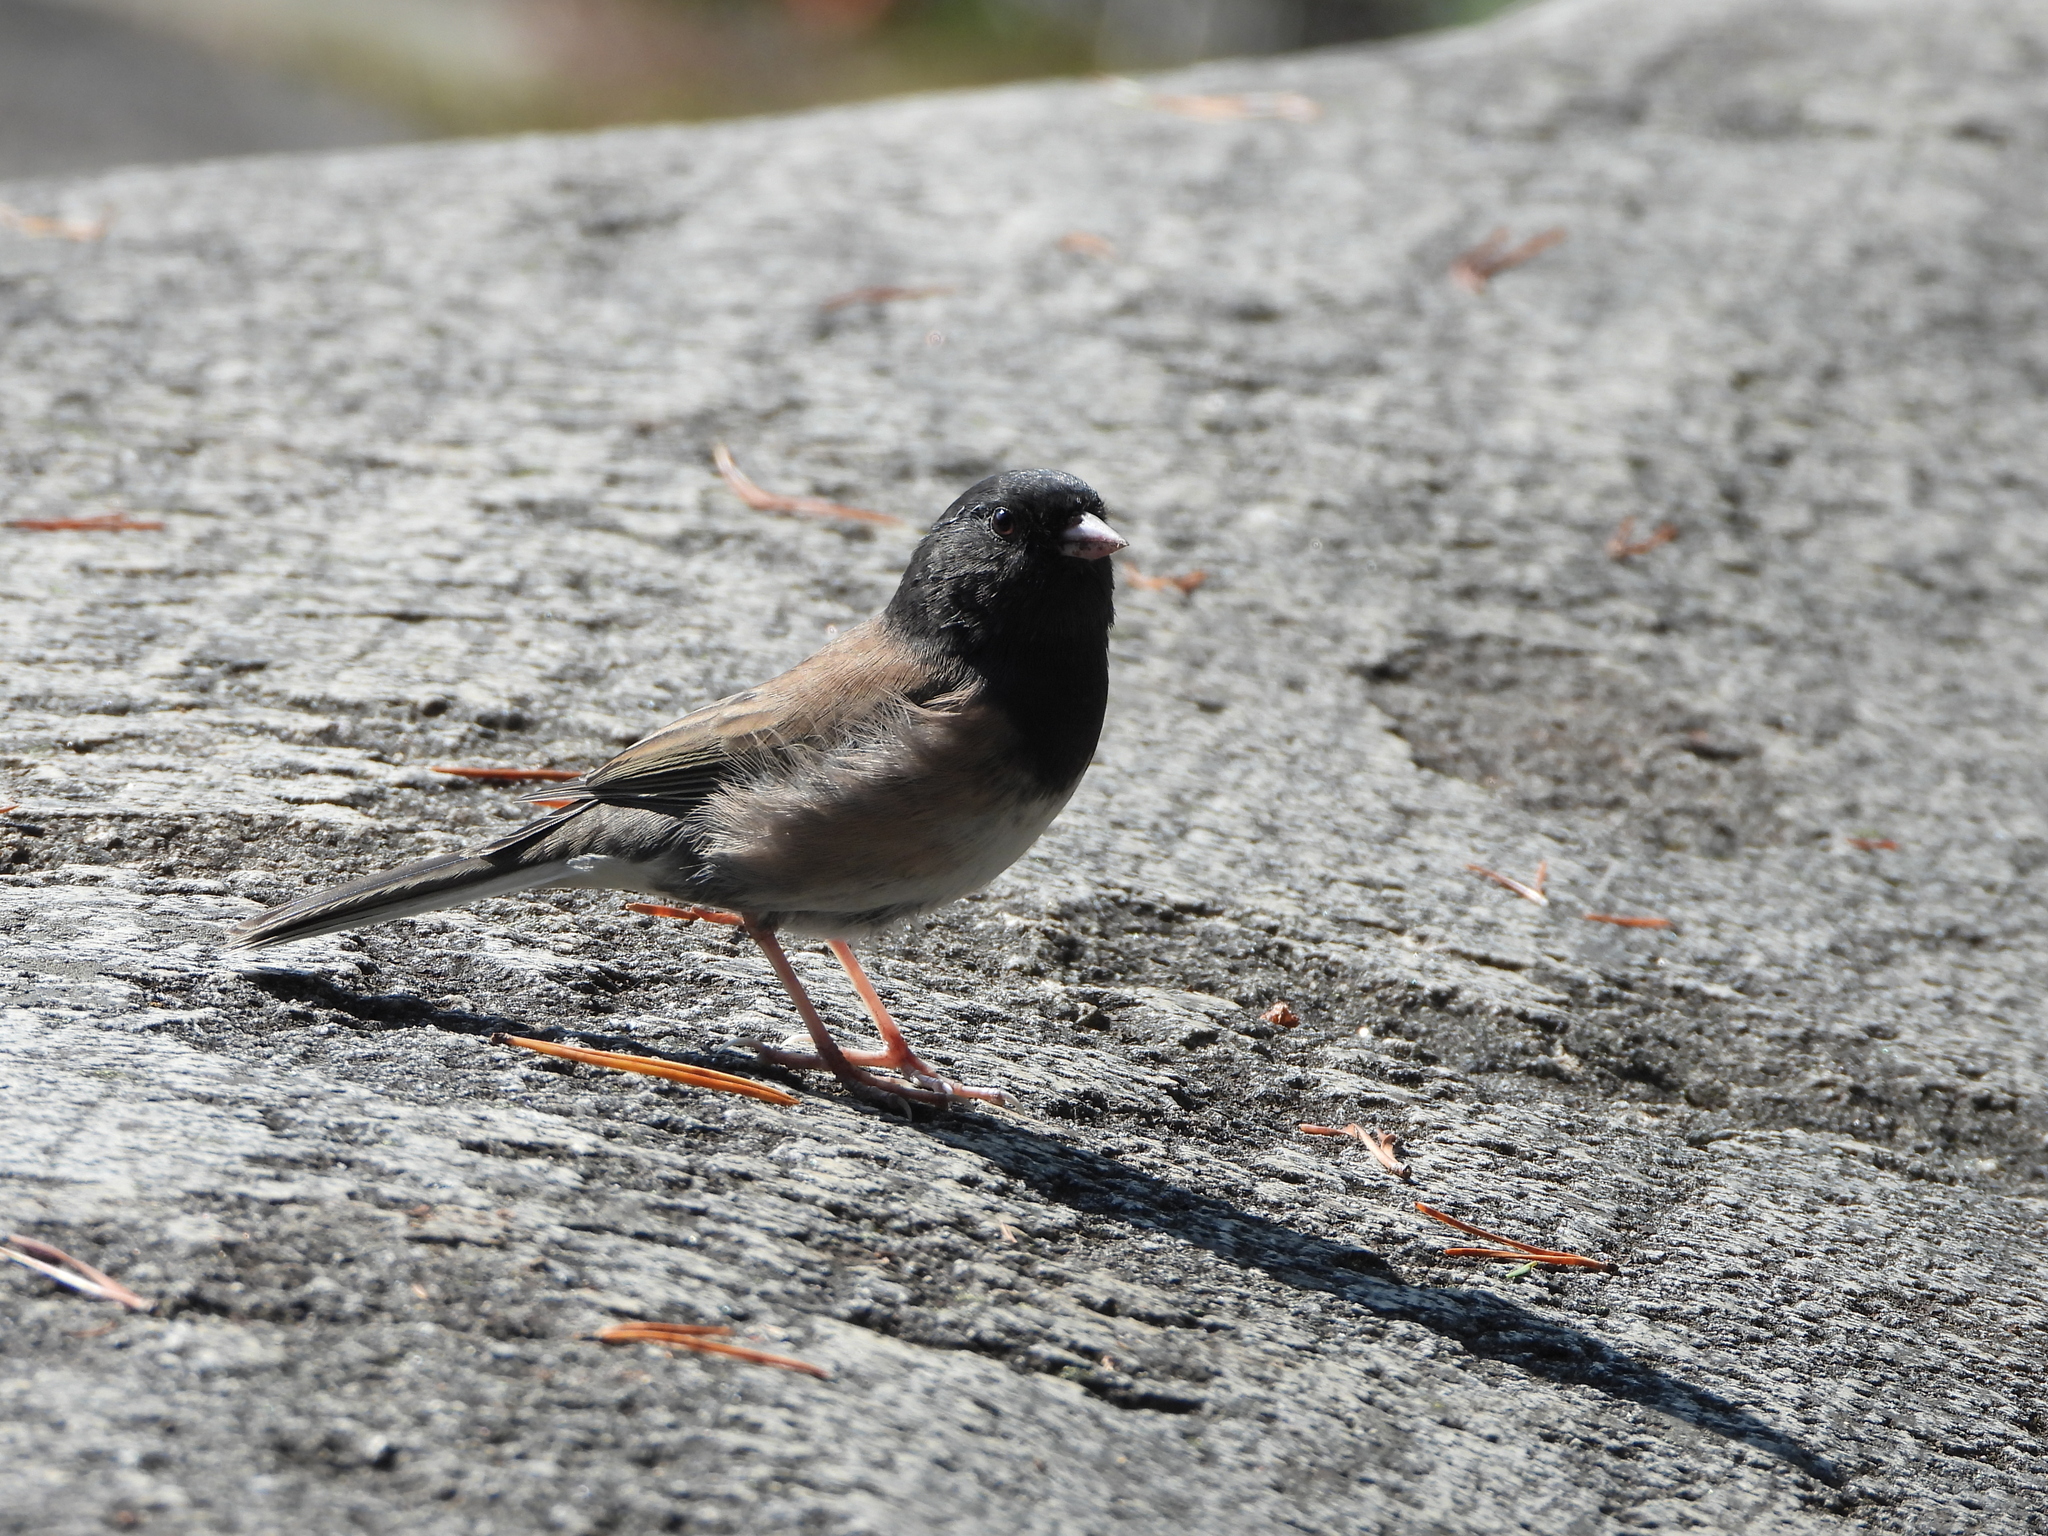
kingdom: Animalia
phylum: Chordata
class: Aves
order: Passeriformes
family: Passerellidae
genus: Junco
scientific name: Junco hyemalis
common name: Dark-eyed junco
